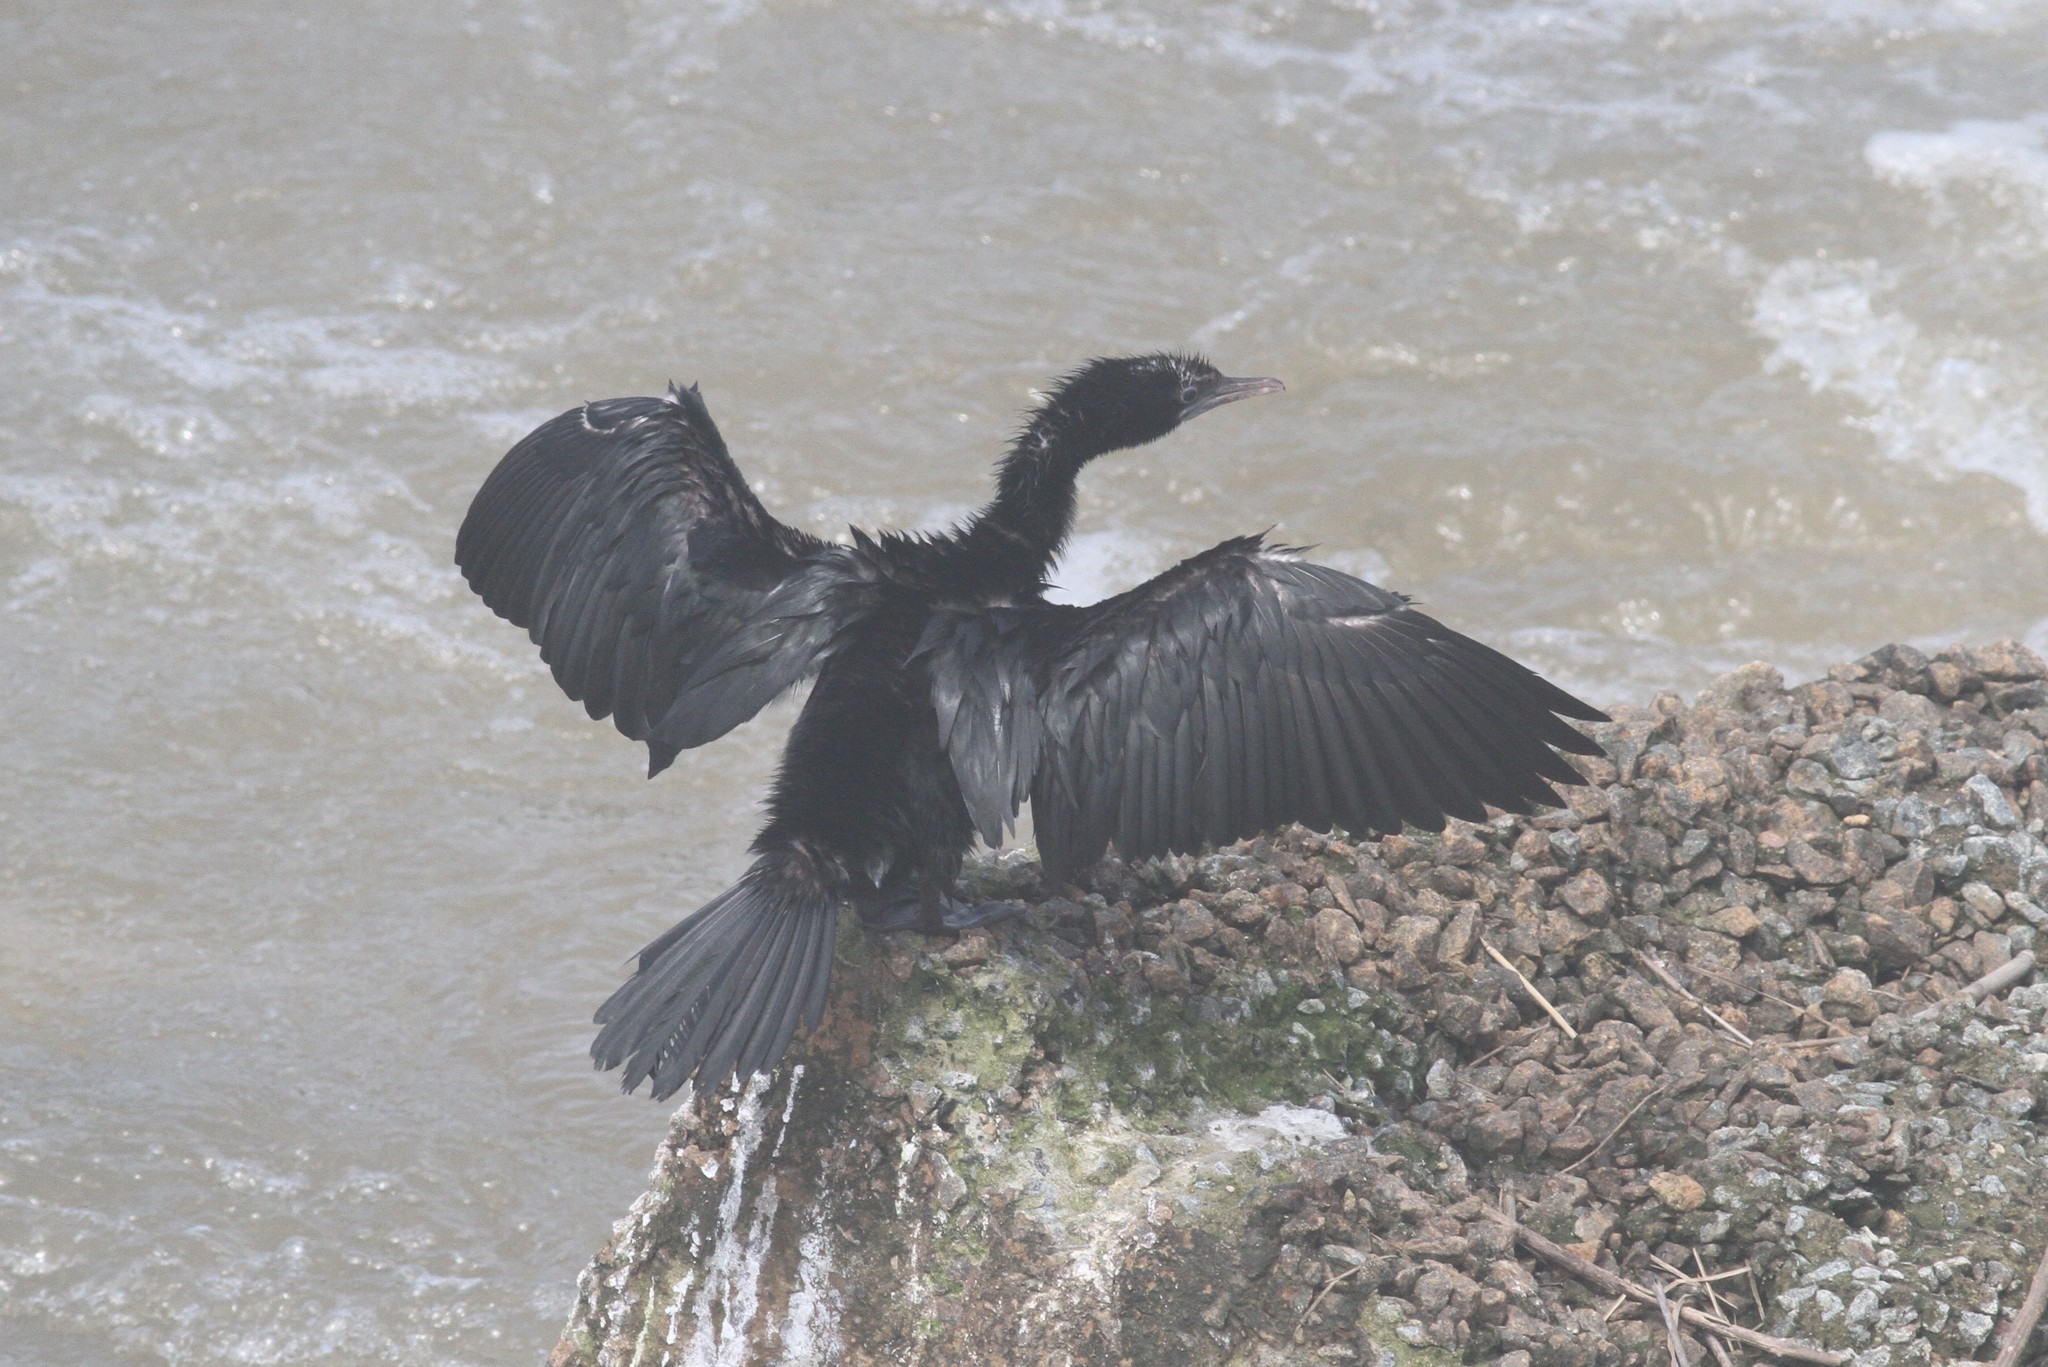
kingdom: Animalia
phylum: Chordata
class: Aves
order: Suliformes
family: Phalacrocoracidae
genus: Microcarbo
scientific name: Microcarbo niger
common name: Little cormorant
